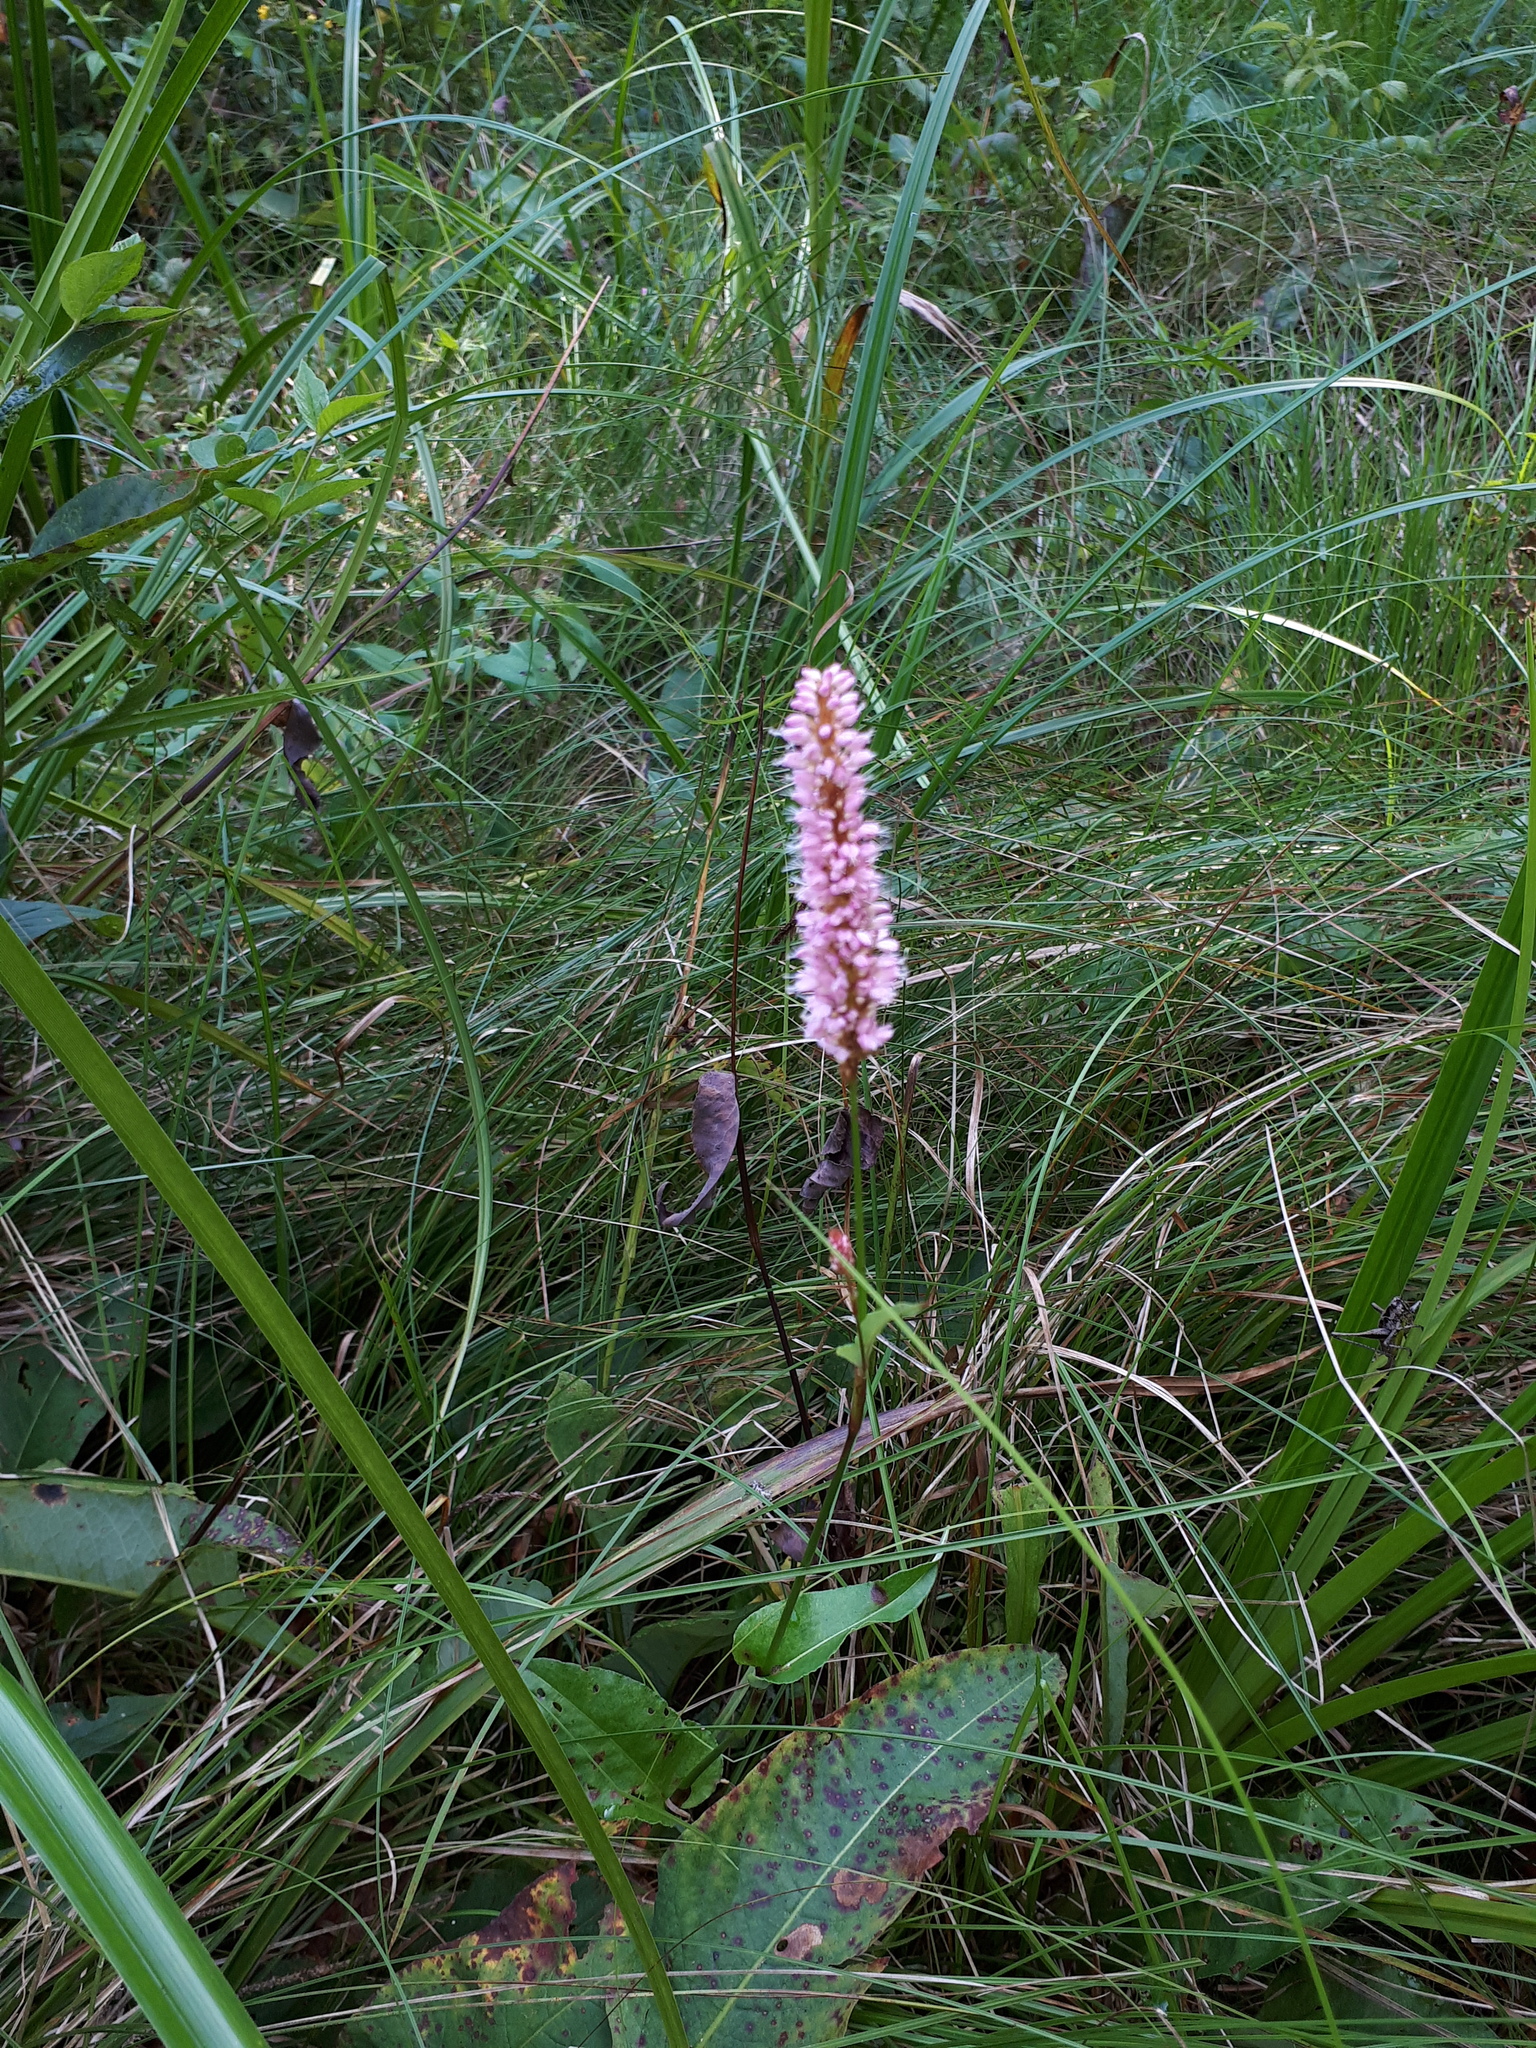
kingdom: Plantae
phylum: Tracheophyta
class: Magnoliopsida
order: Caryophyllales
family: Polygonaceae
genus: Bistorta
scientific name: Bistorta officinalis
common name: Common bistort
